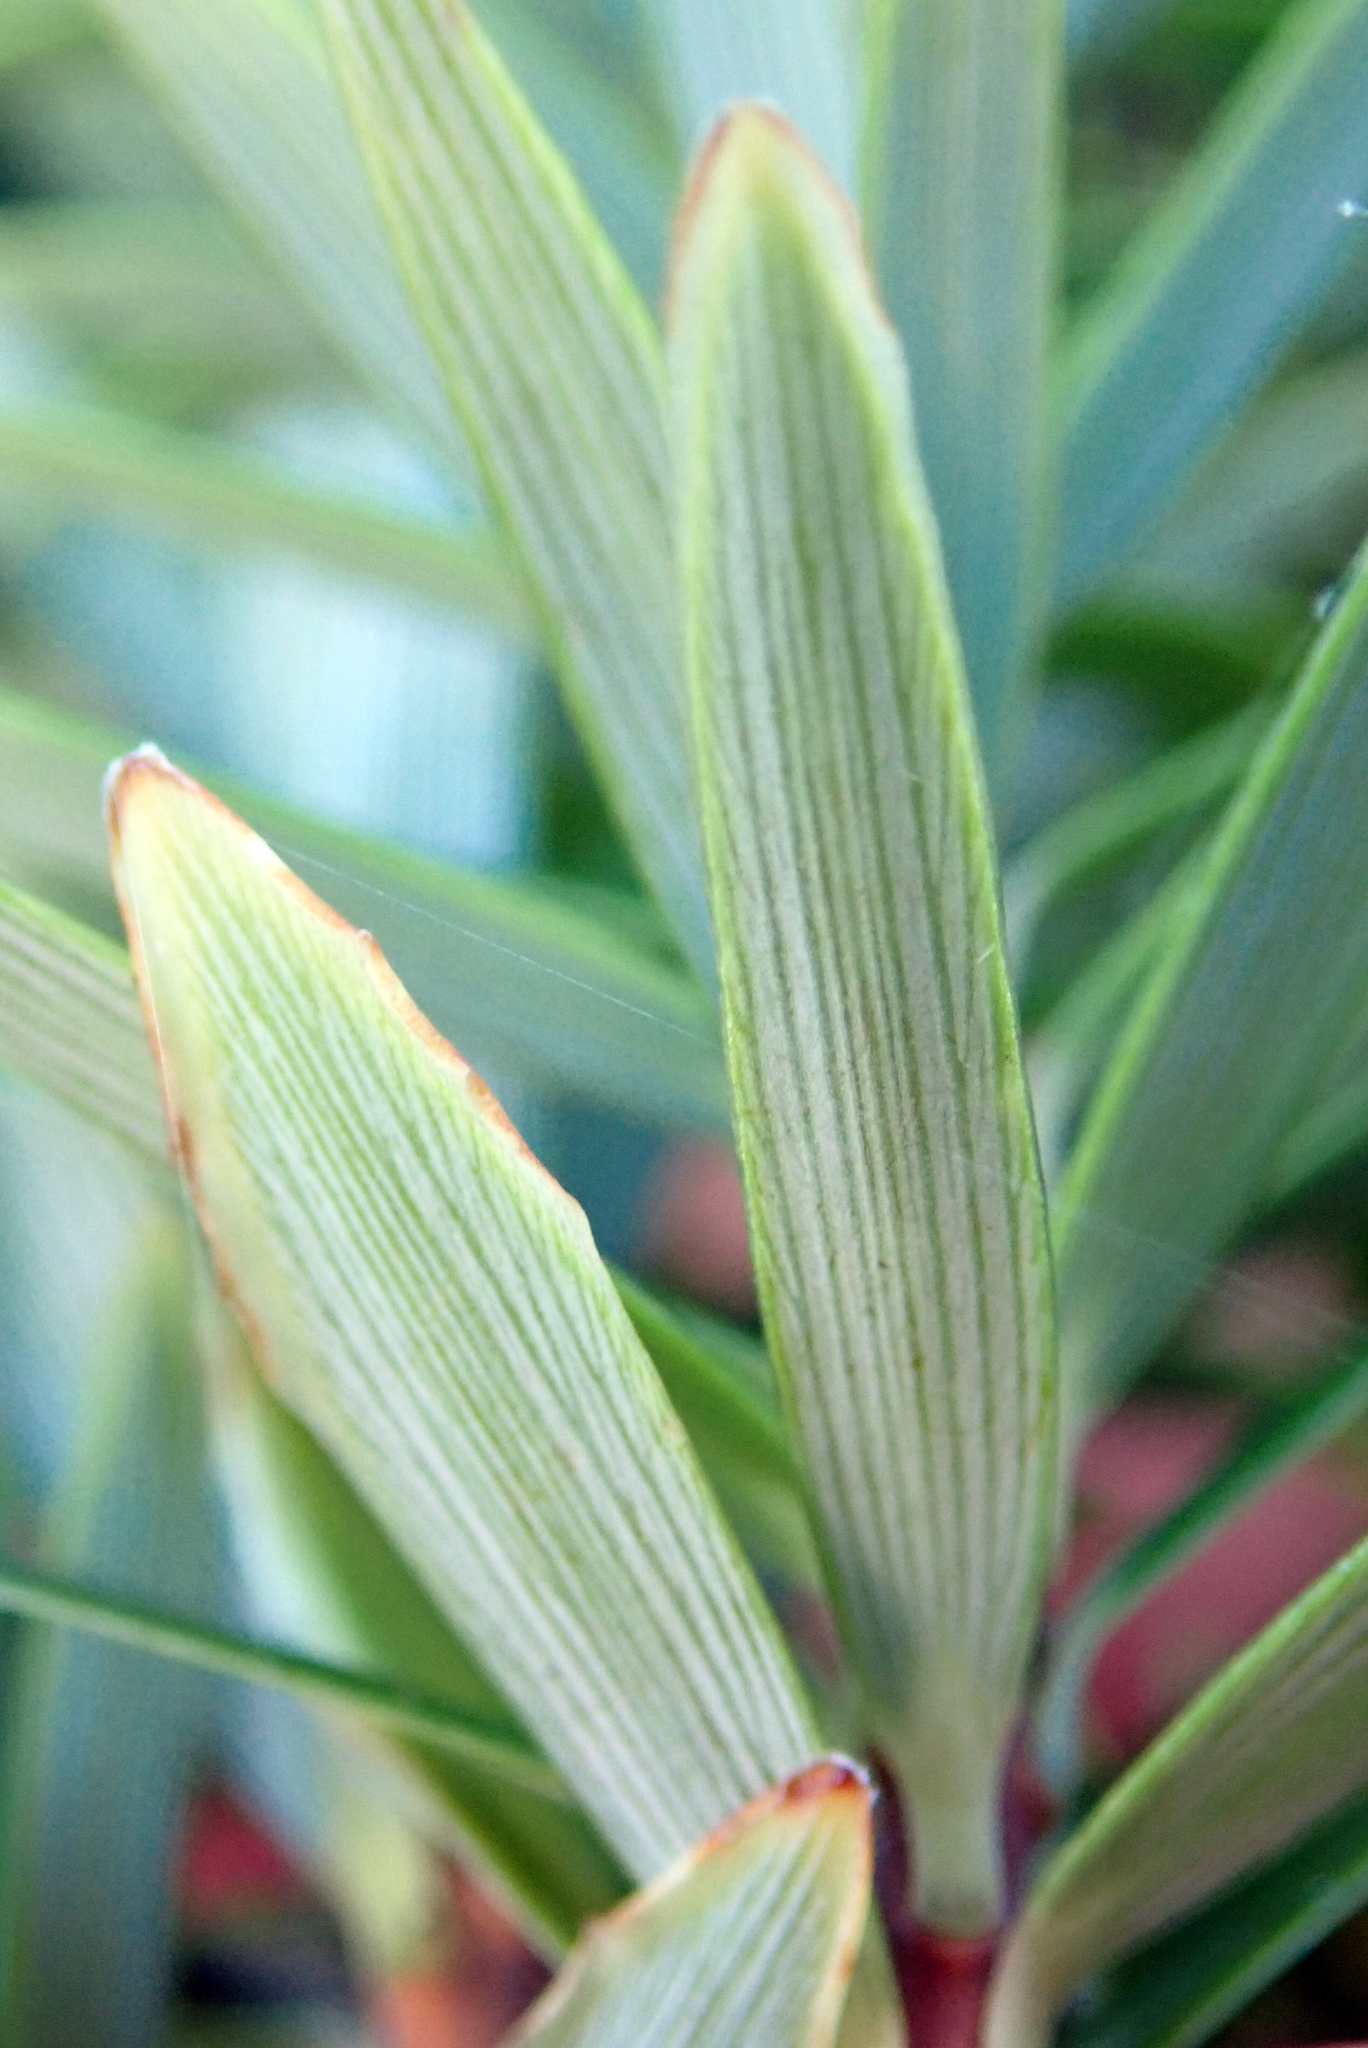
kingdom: Plantae
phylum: Tracheophyta
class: Magnoliopsida
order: Ericales
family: Ericaceae
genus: Leptecophylla
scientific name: Leptecophylla robusta
